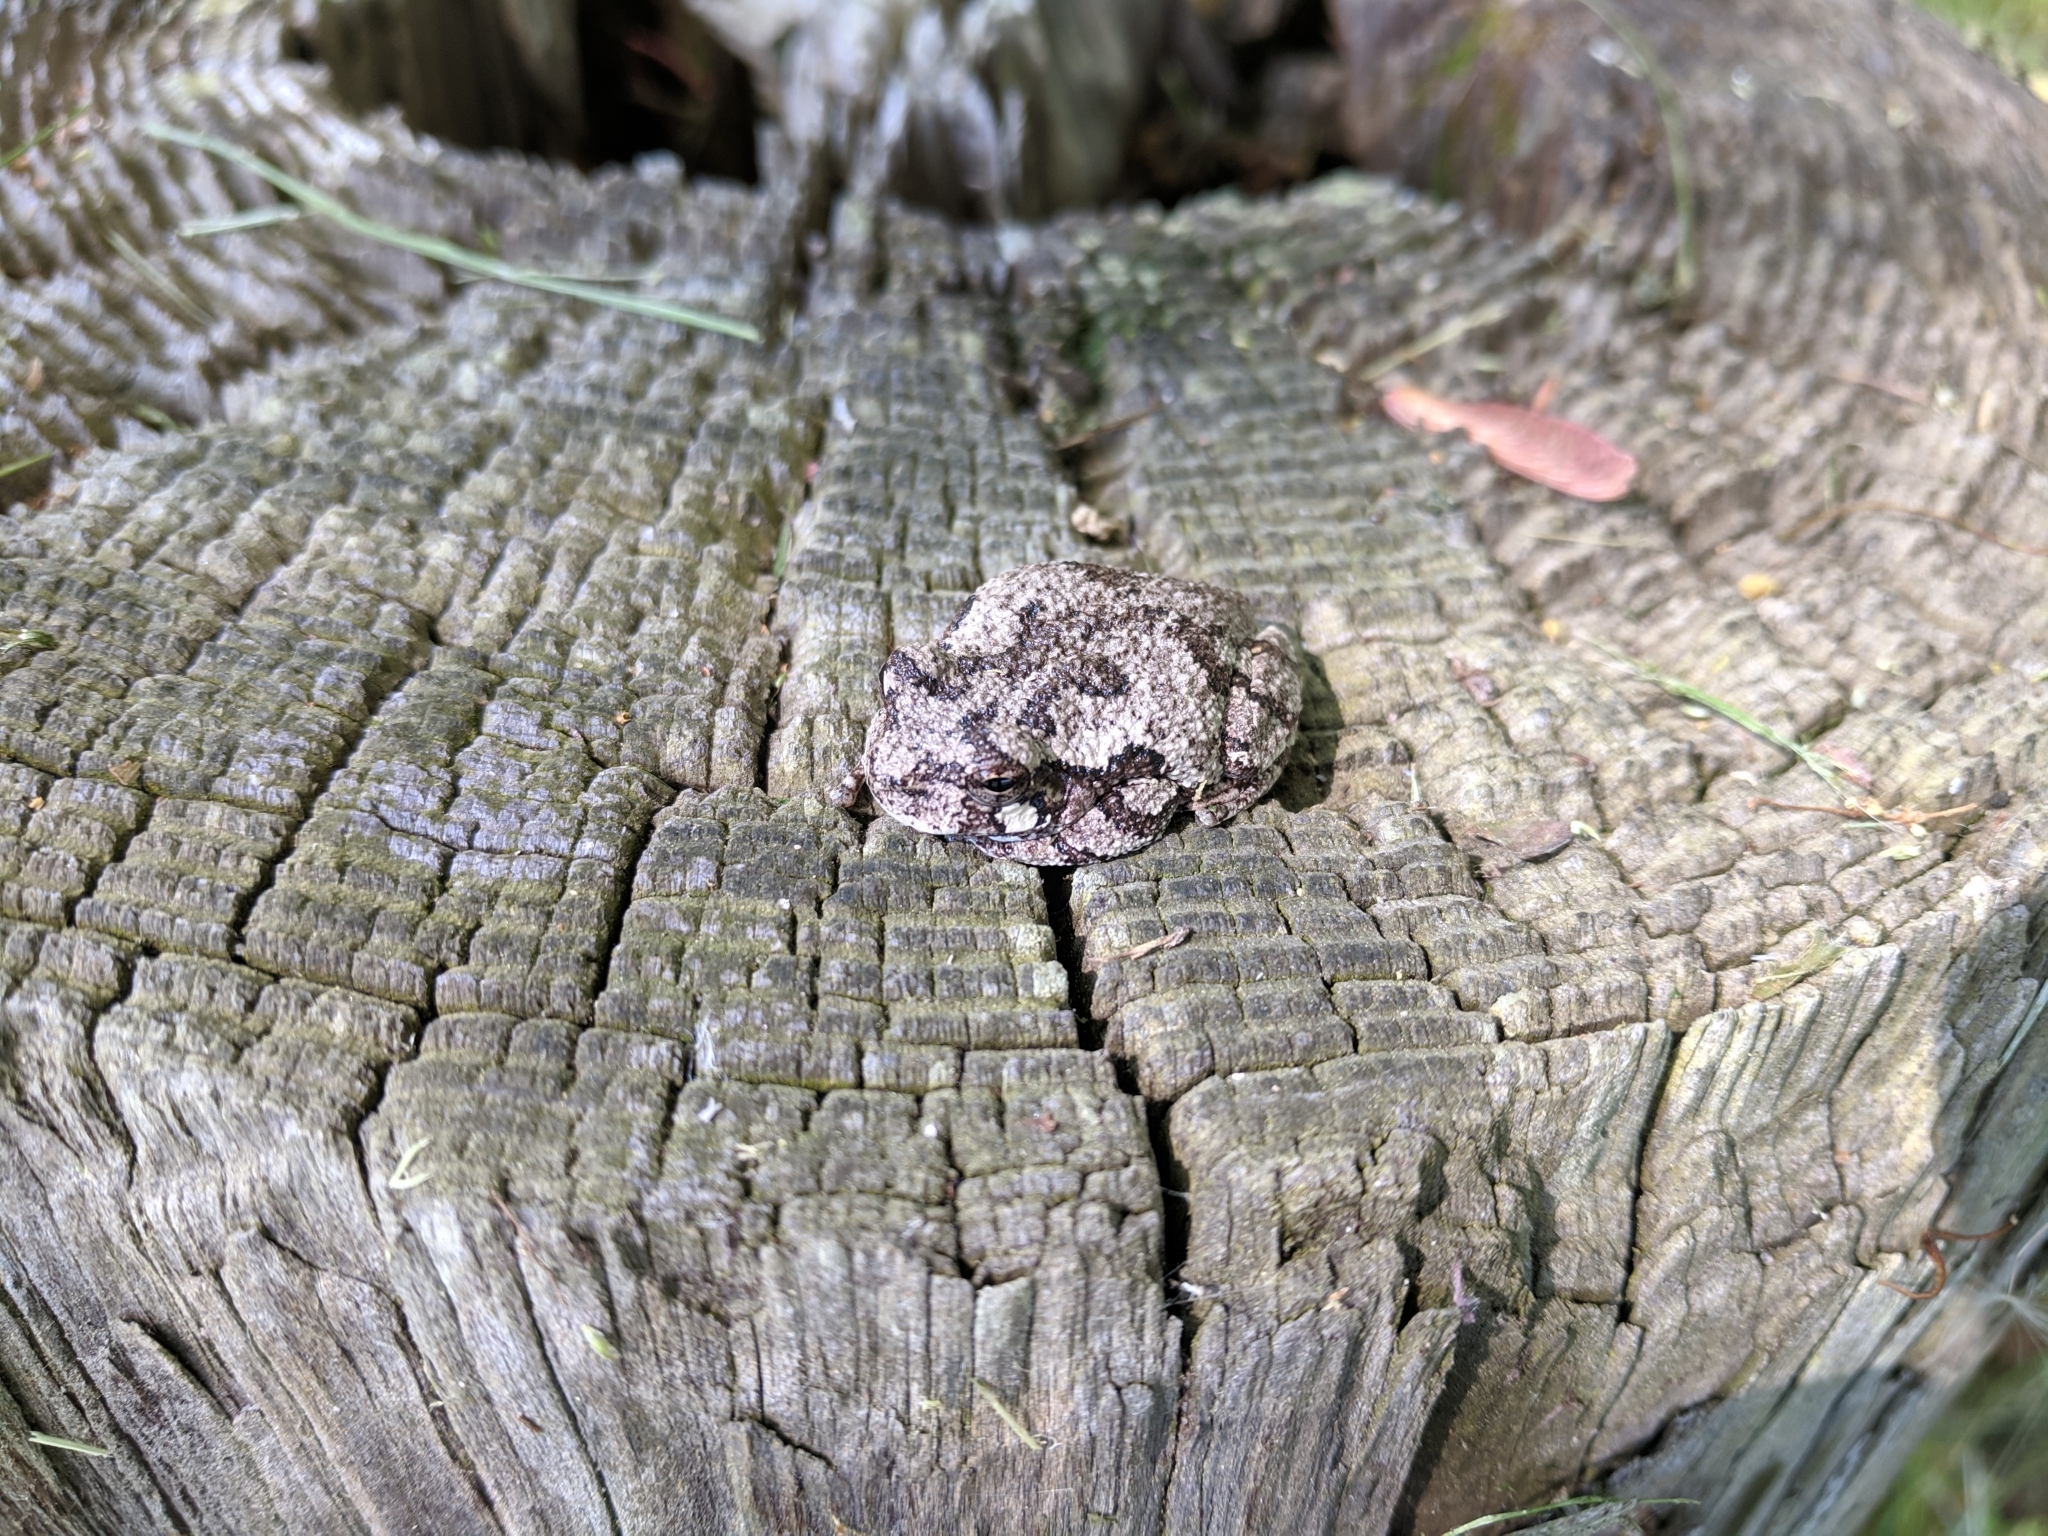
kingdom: Animalia
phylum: Chordata
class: Amphibia
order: Anura
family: Hylidae
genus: Dryophytes
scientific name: Dryophytes chrysoscelis
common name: Cope's gray treefrog
